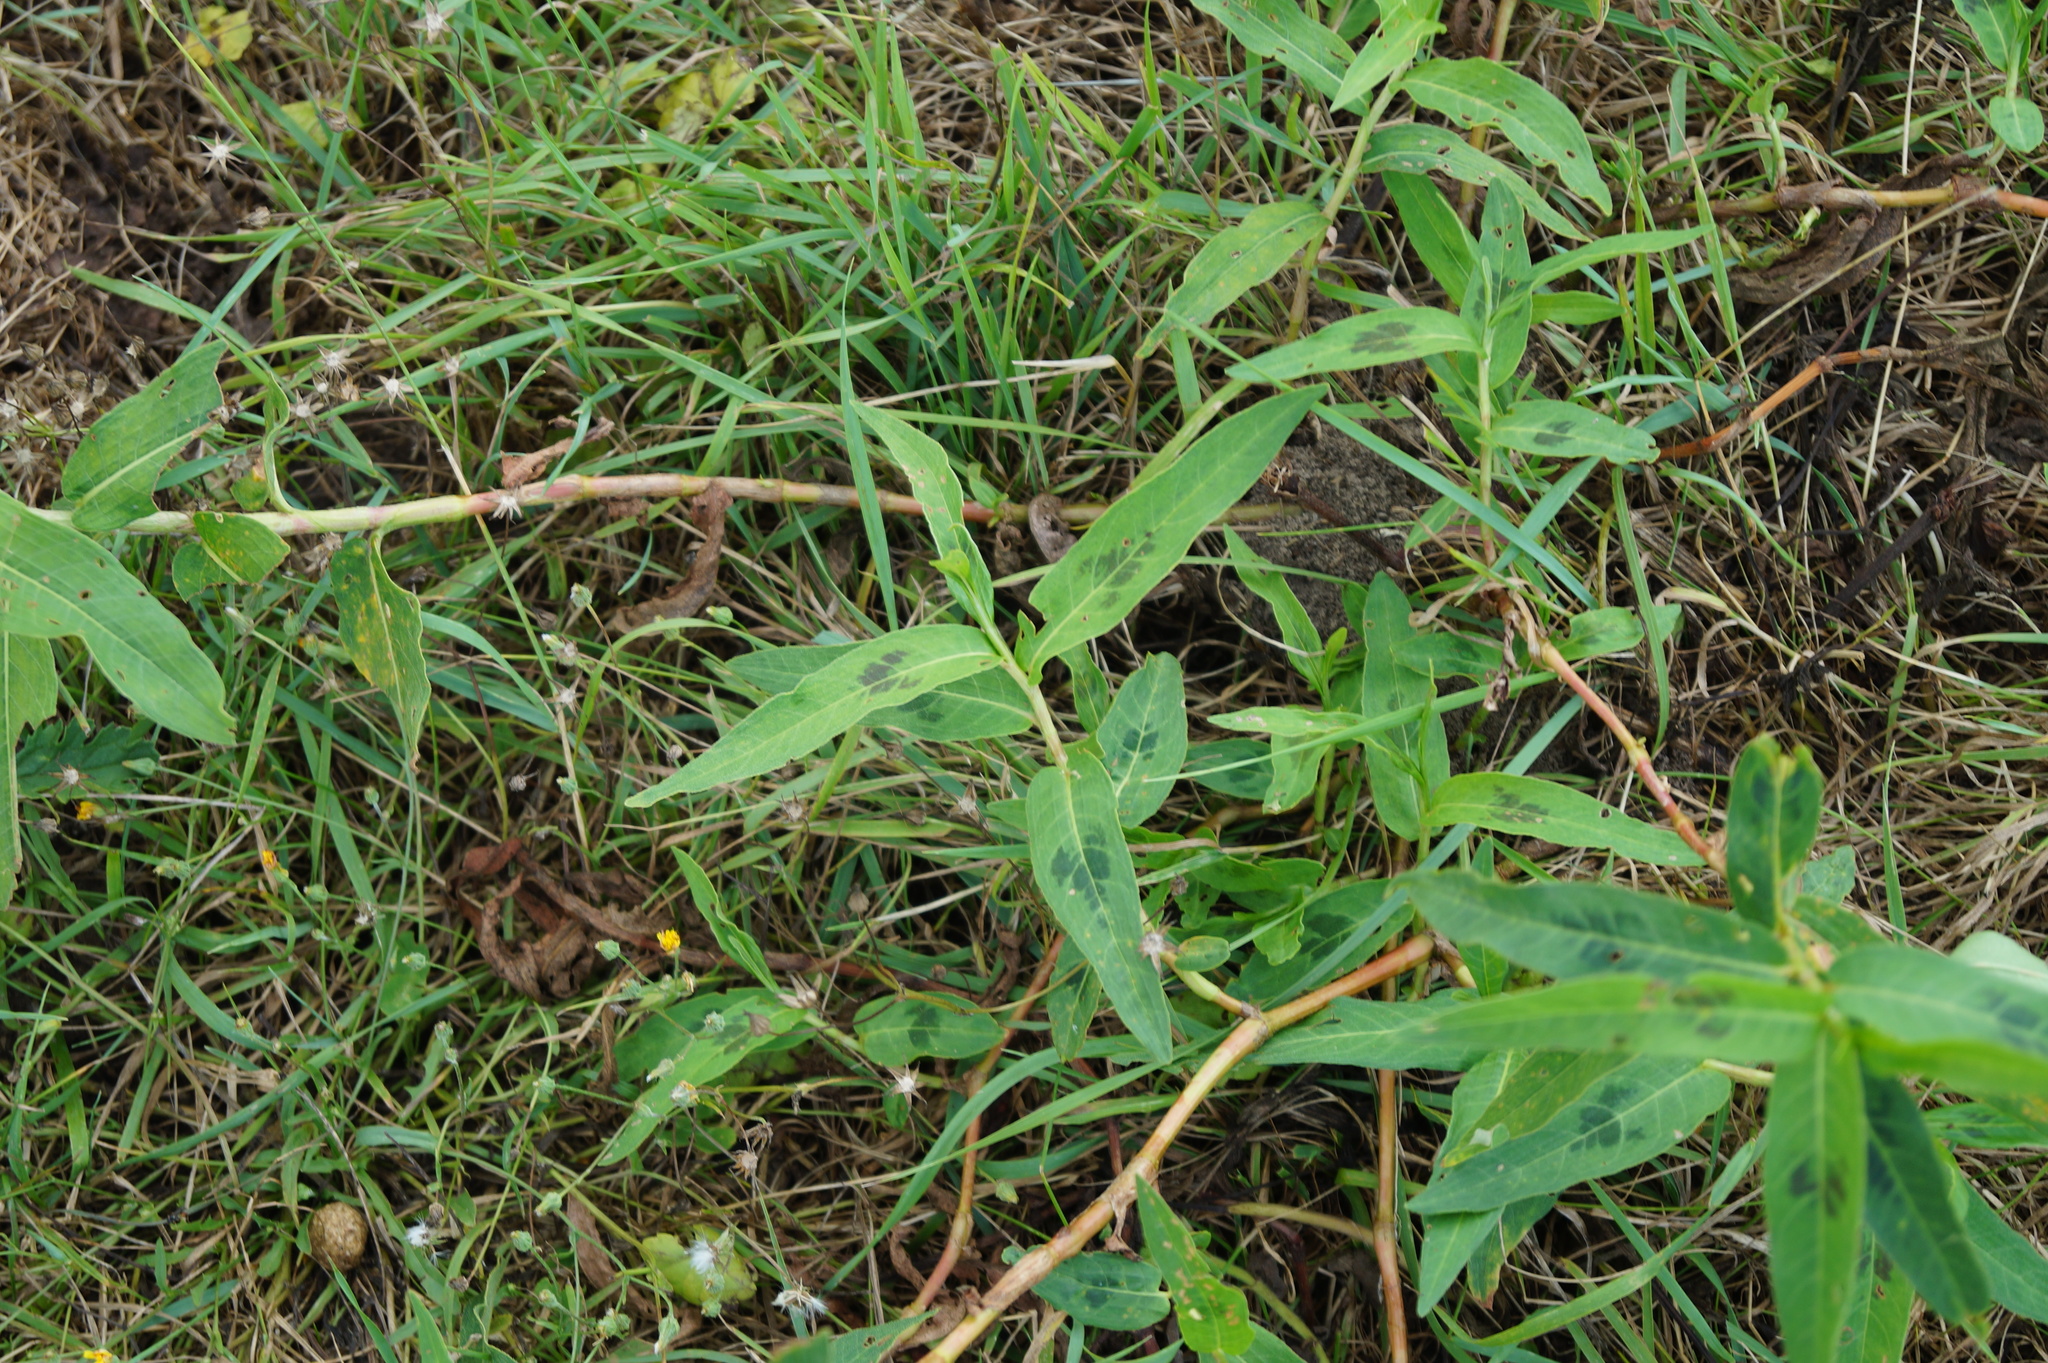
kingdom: Plantae
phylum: Tracheophyta
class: Magnoliopsida
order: Caryophyllales
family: Polygonaceae
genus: Persicaria
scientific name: Persicaria amphibia
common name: Amphibious bistort
